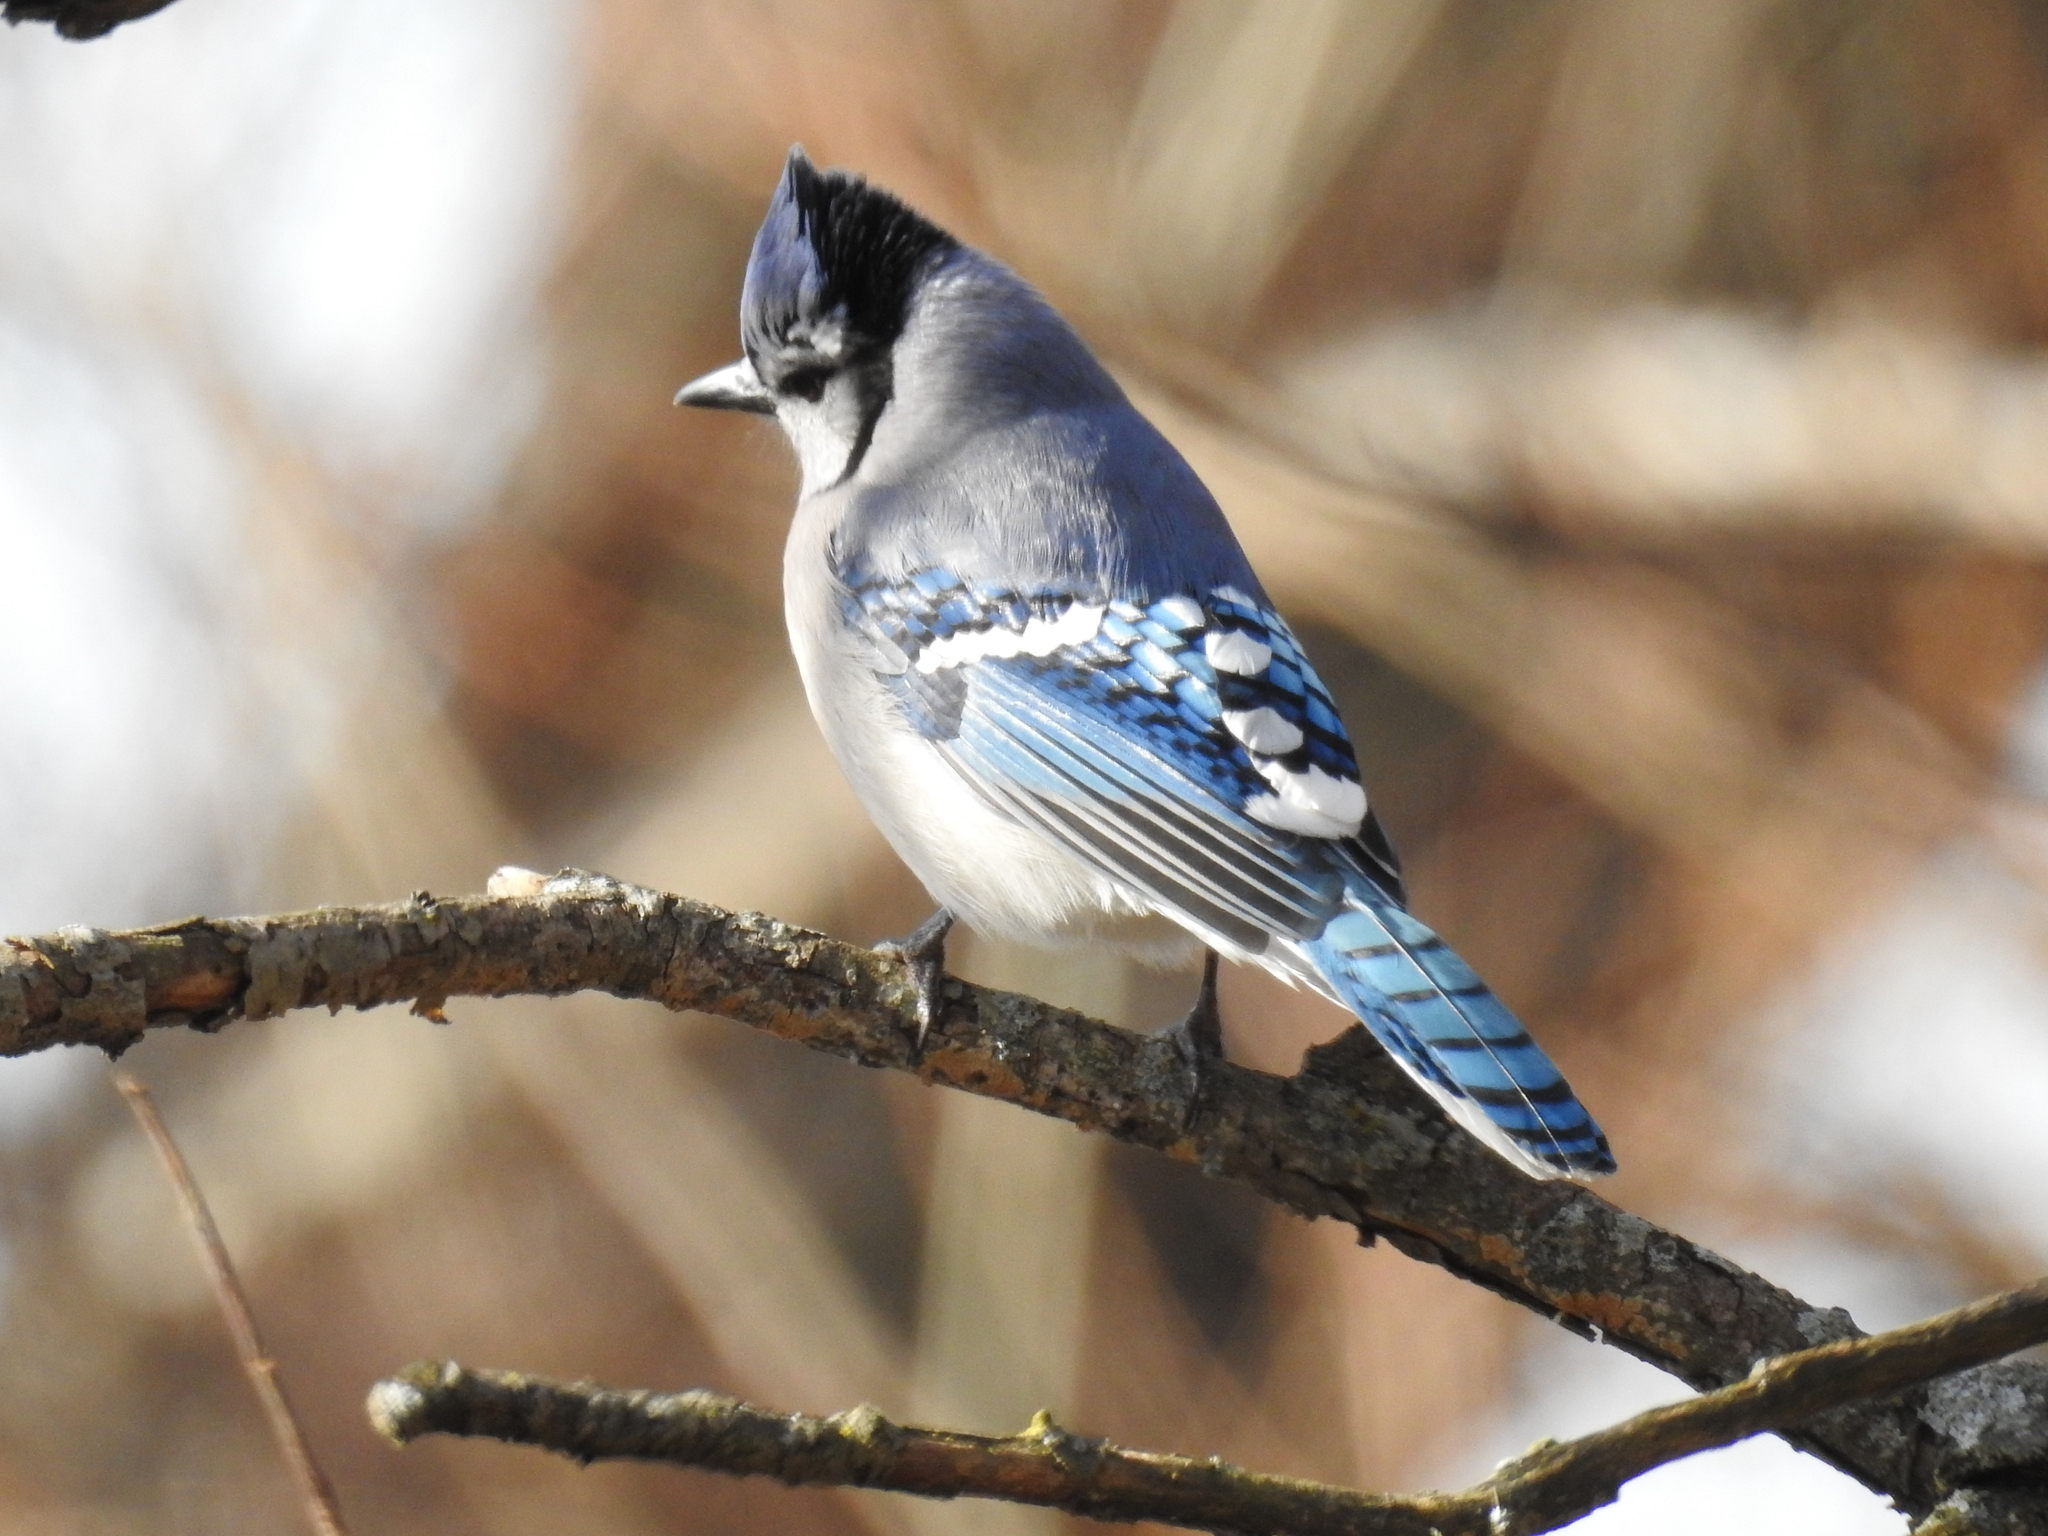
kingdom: Animalia
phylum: Chordata
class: Aves
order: Passeriformes
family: Corvidae
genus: Cyanocitta
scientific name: Cyanocitta cristata
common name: Blue jay
